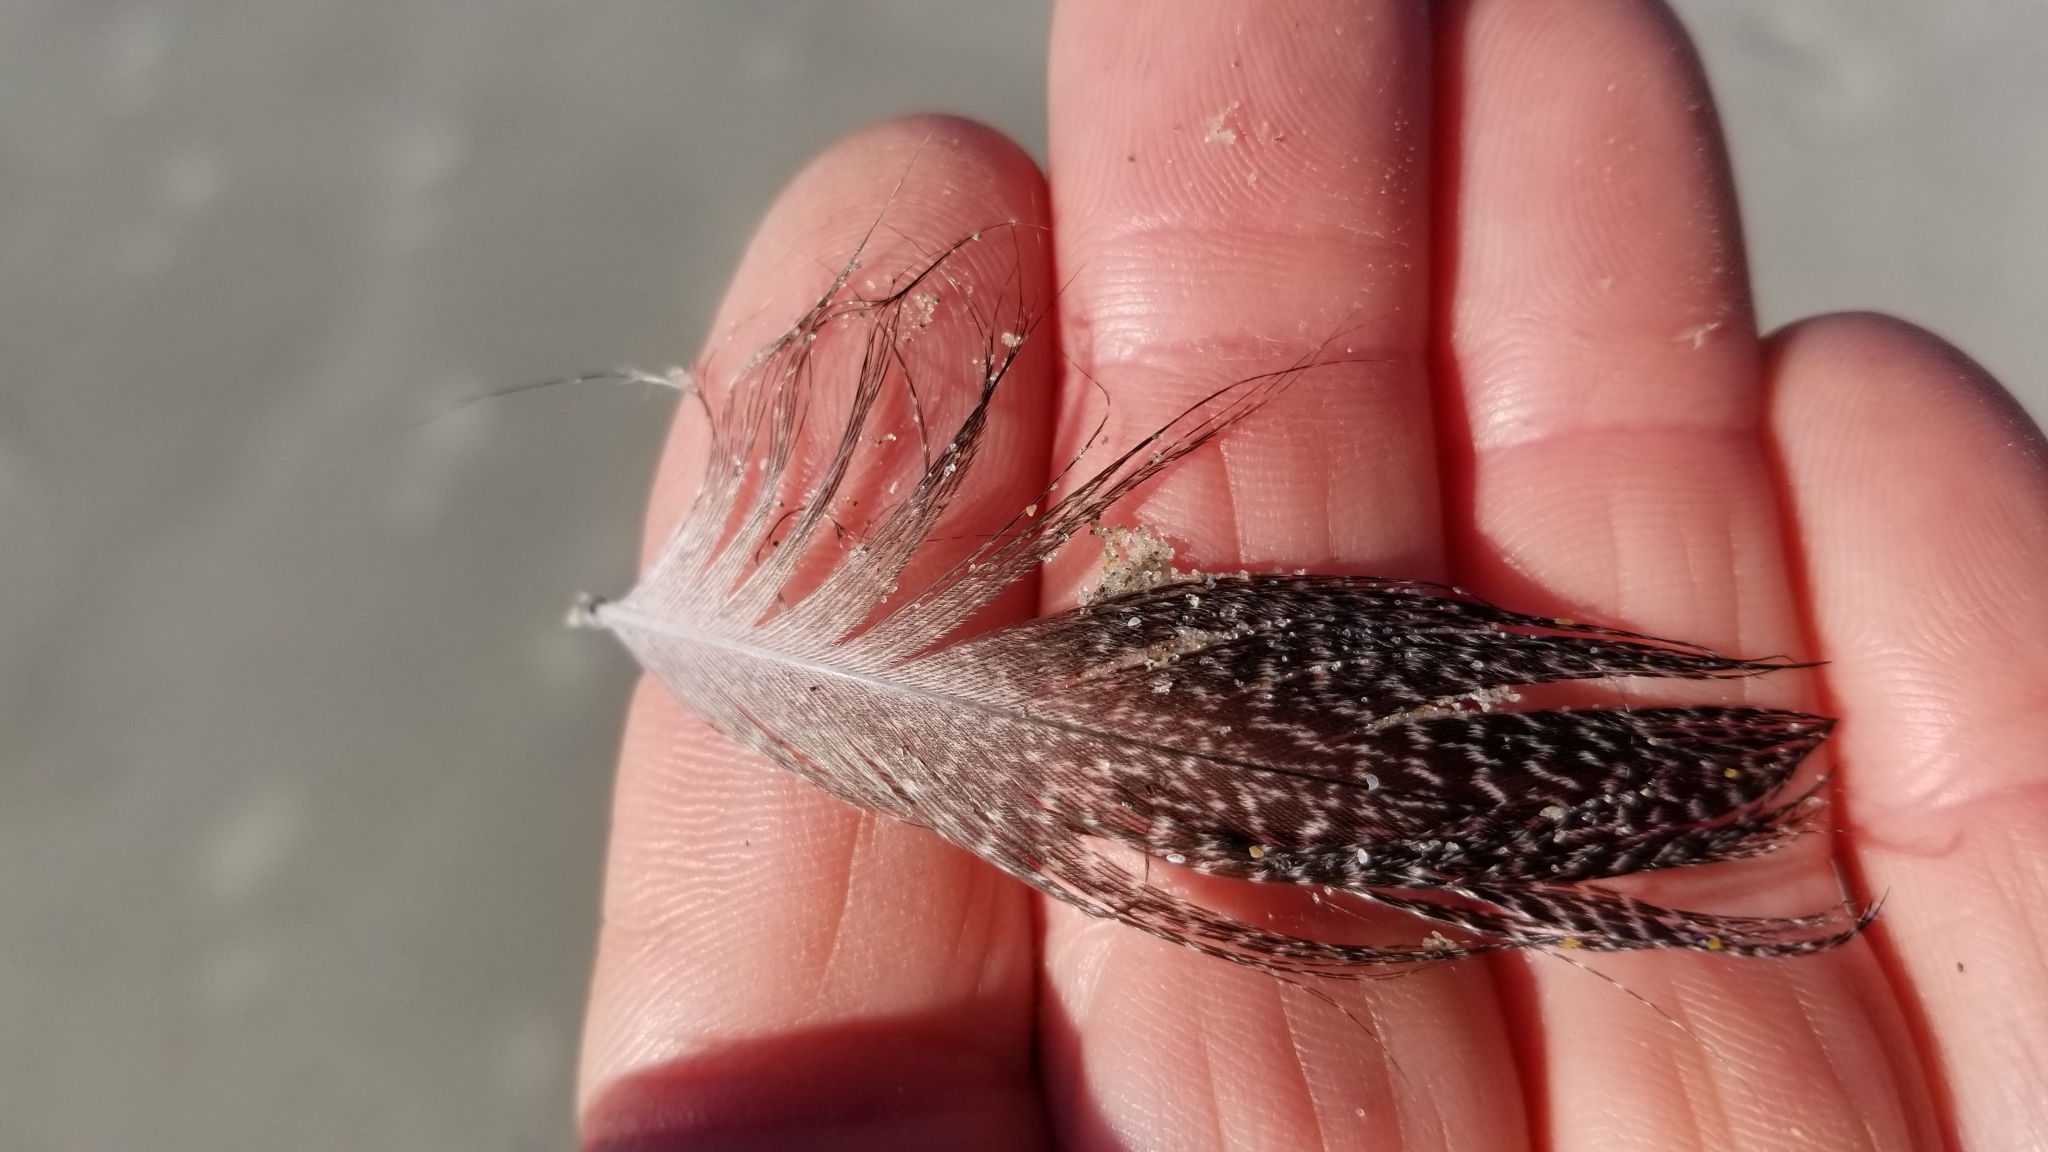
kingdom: Animalia
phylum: Chordata
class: Aves
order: Anseriformes
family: Anatidae
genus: Tadorna
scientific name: Tadorna variegata
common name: Paradise shelduck
